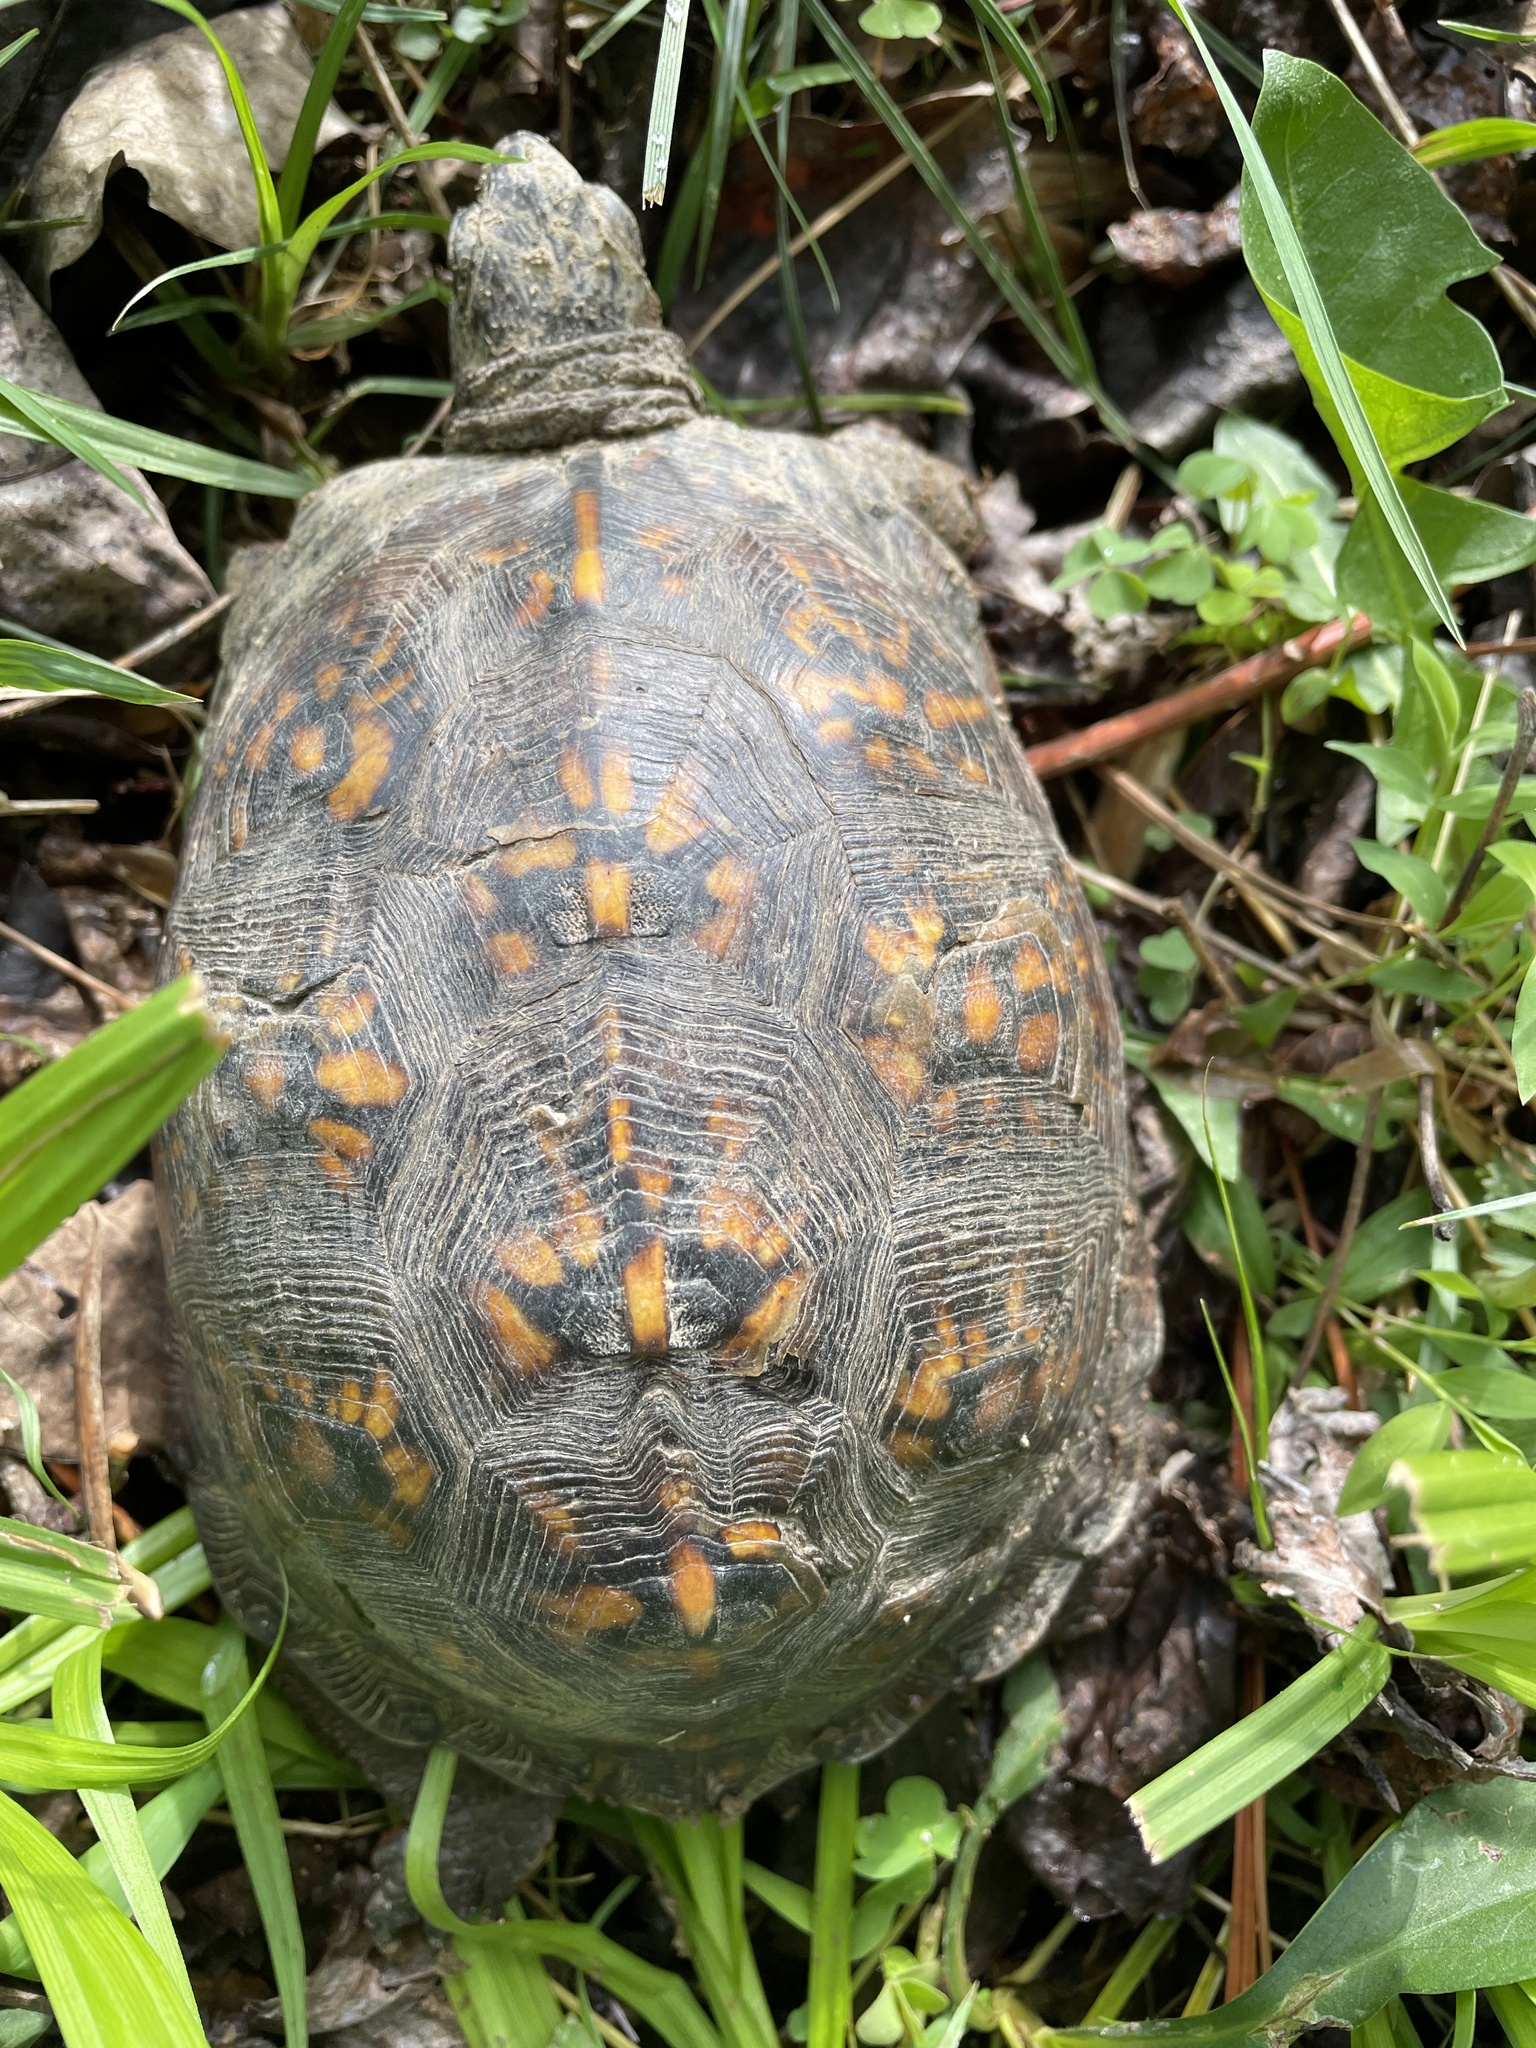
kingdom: Animalia
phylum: Chordata
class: Testudines
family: Emydidae
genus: Terrapene
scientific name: Terrapene carolina
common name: Common box turtle
